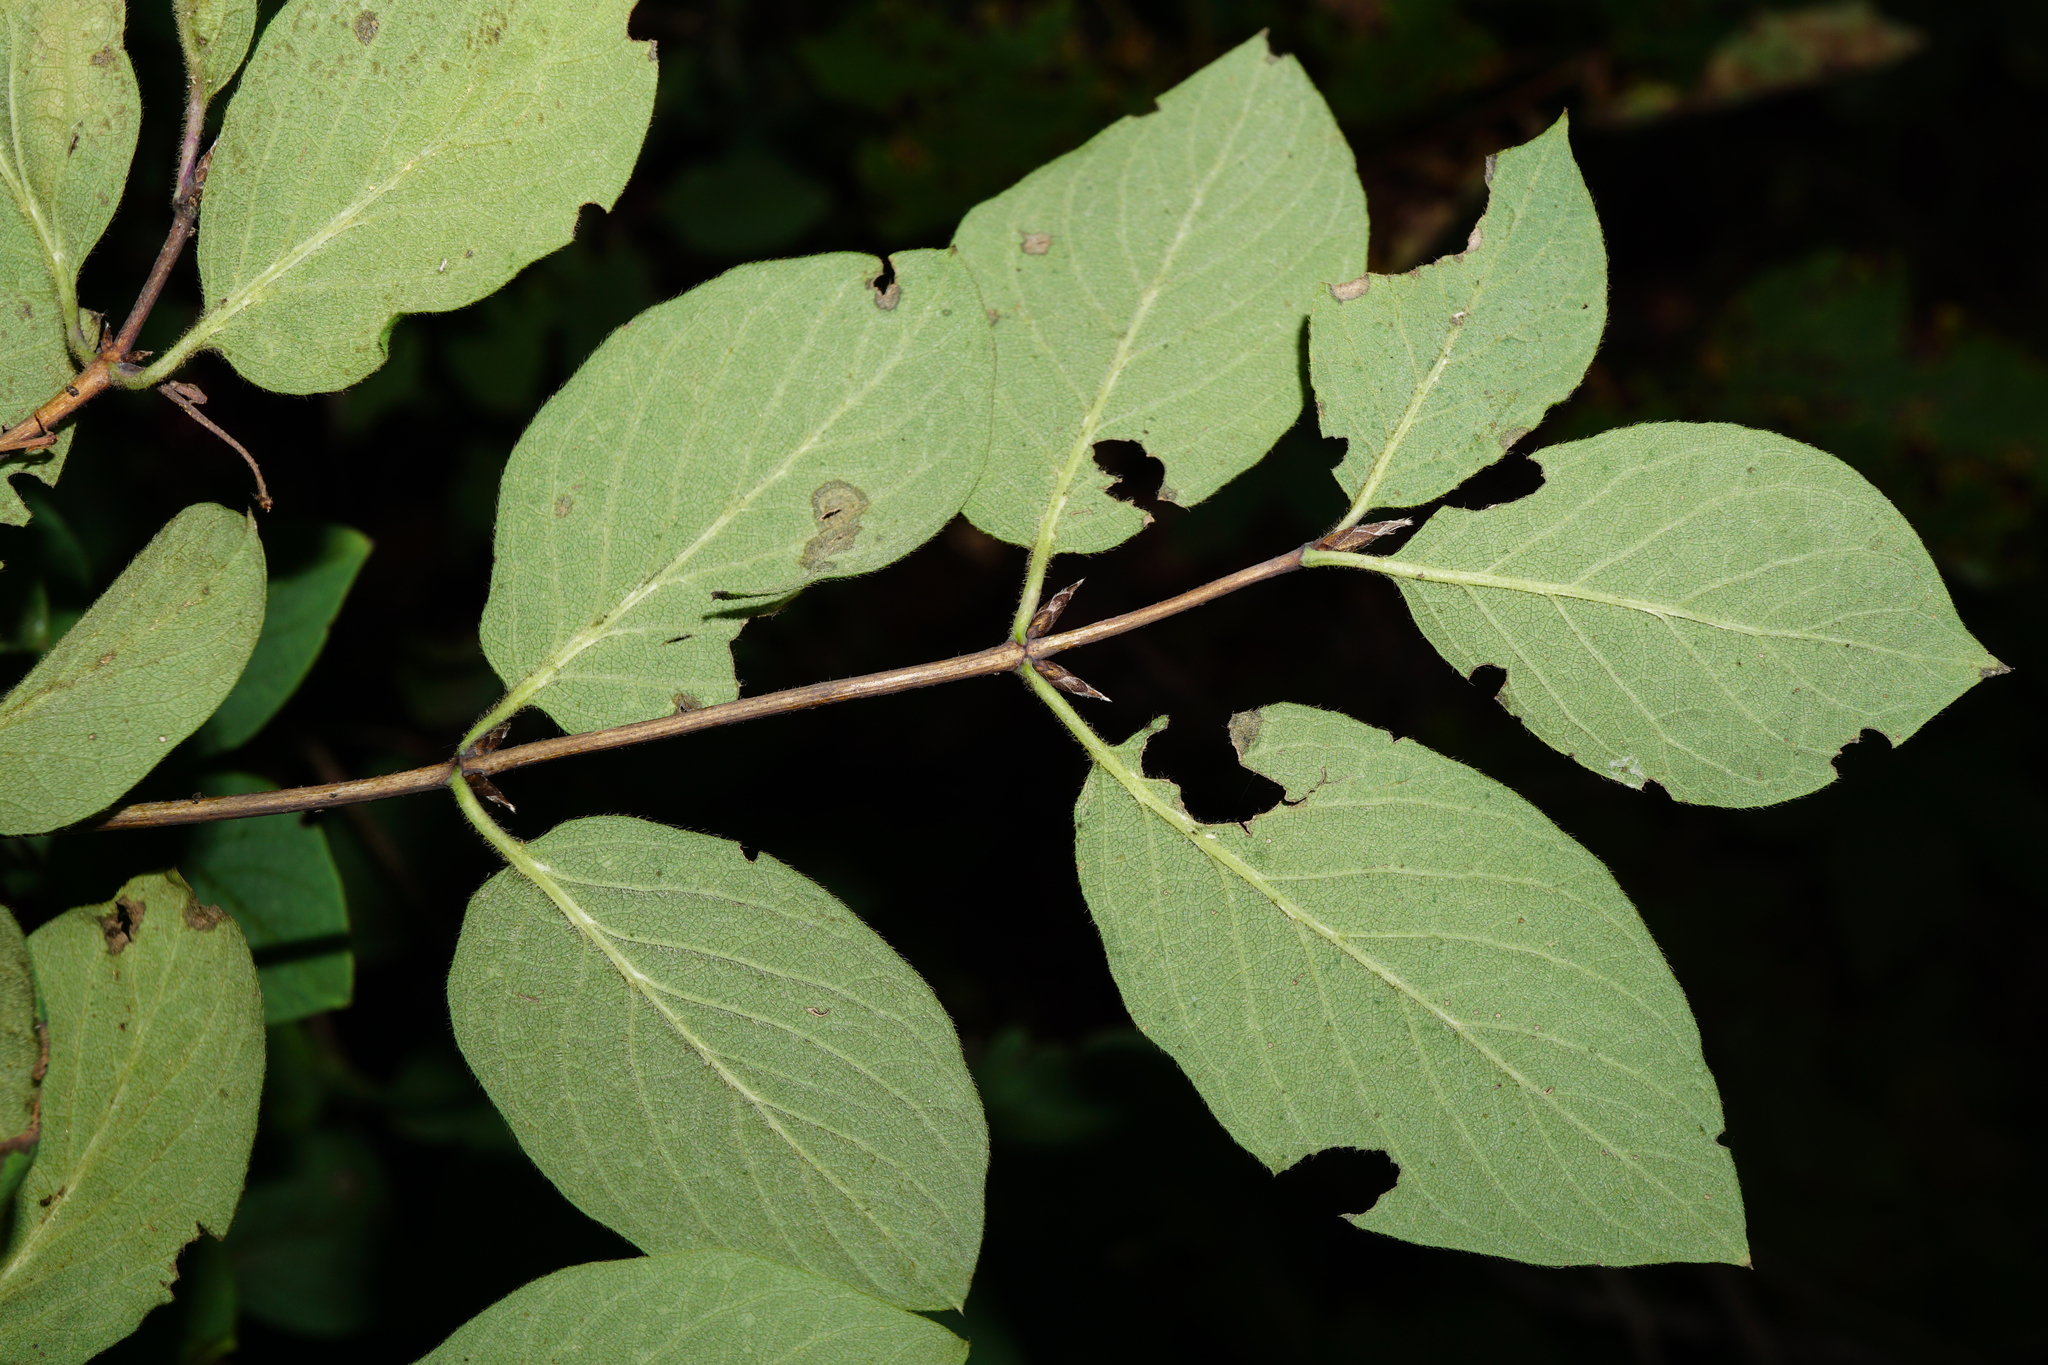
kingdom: Plantae
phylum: Tracheophyta
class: Magnoliopsida
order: Dipsacales
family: Caprifoliaceae
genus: Lonicera
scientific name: Lonicera xylosteum
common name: Fly honeysuckle
